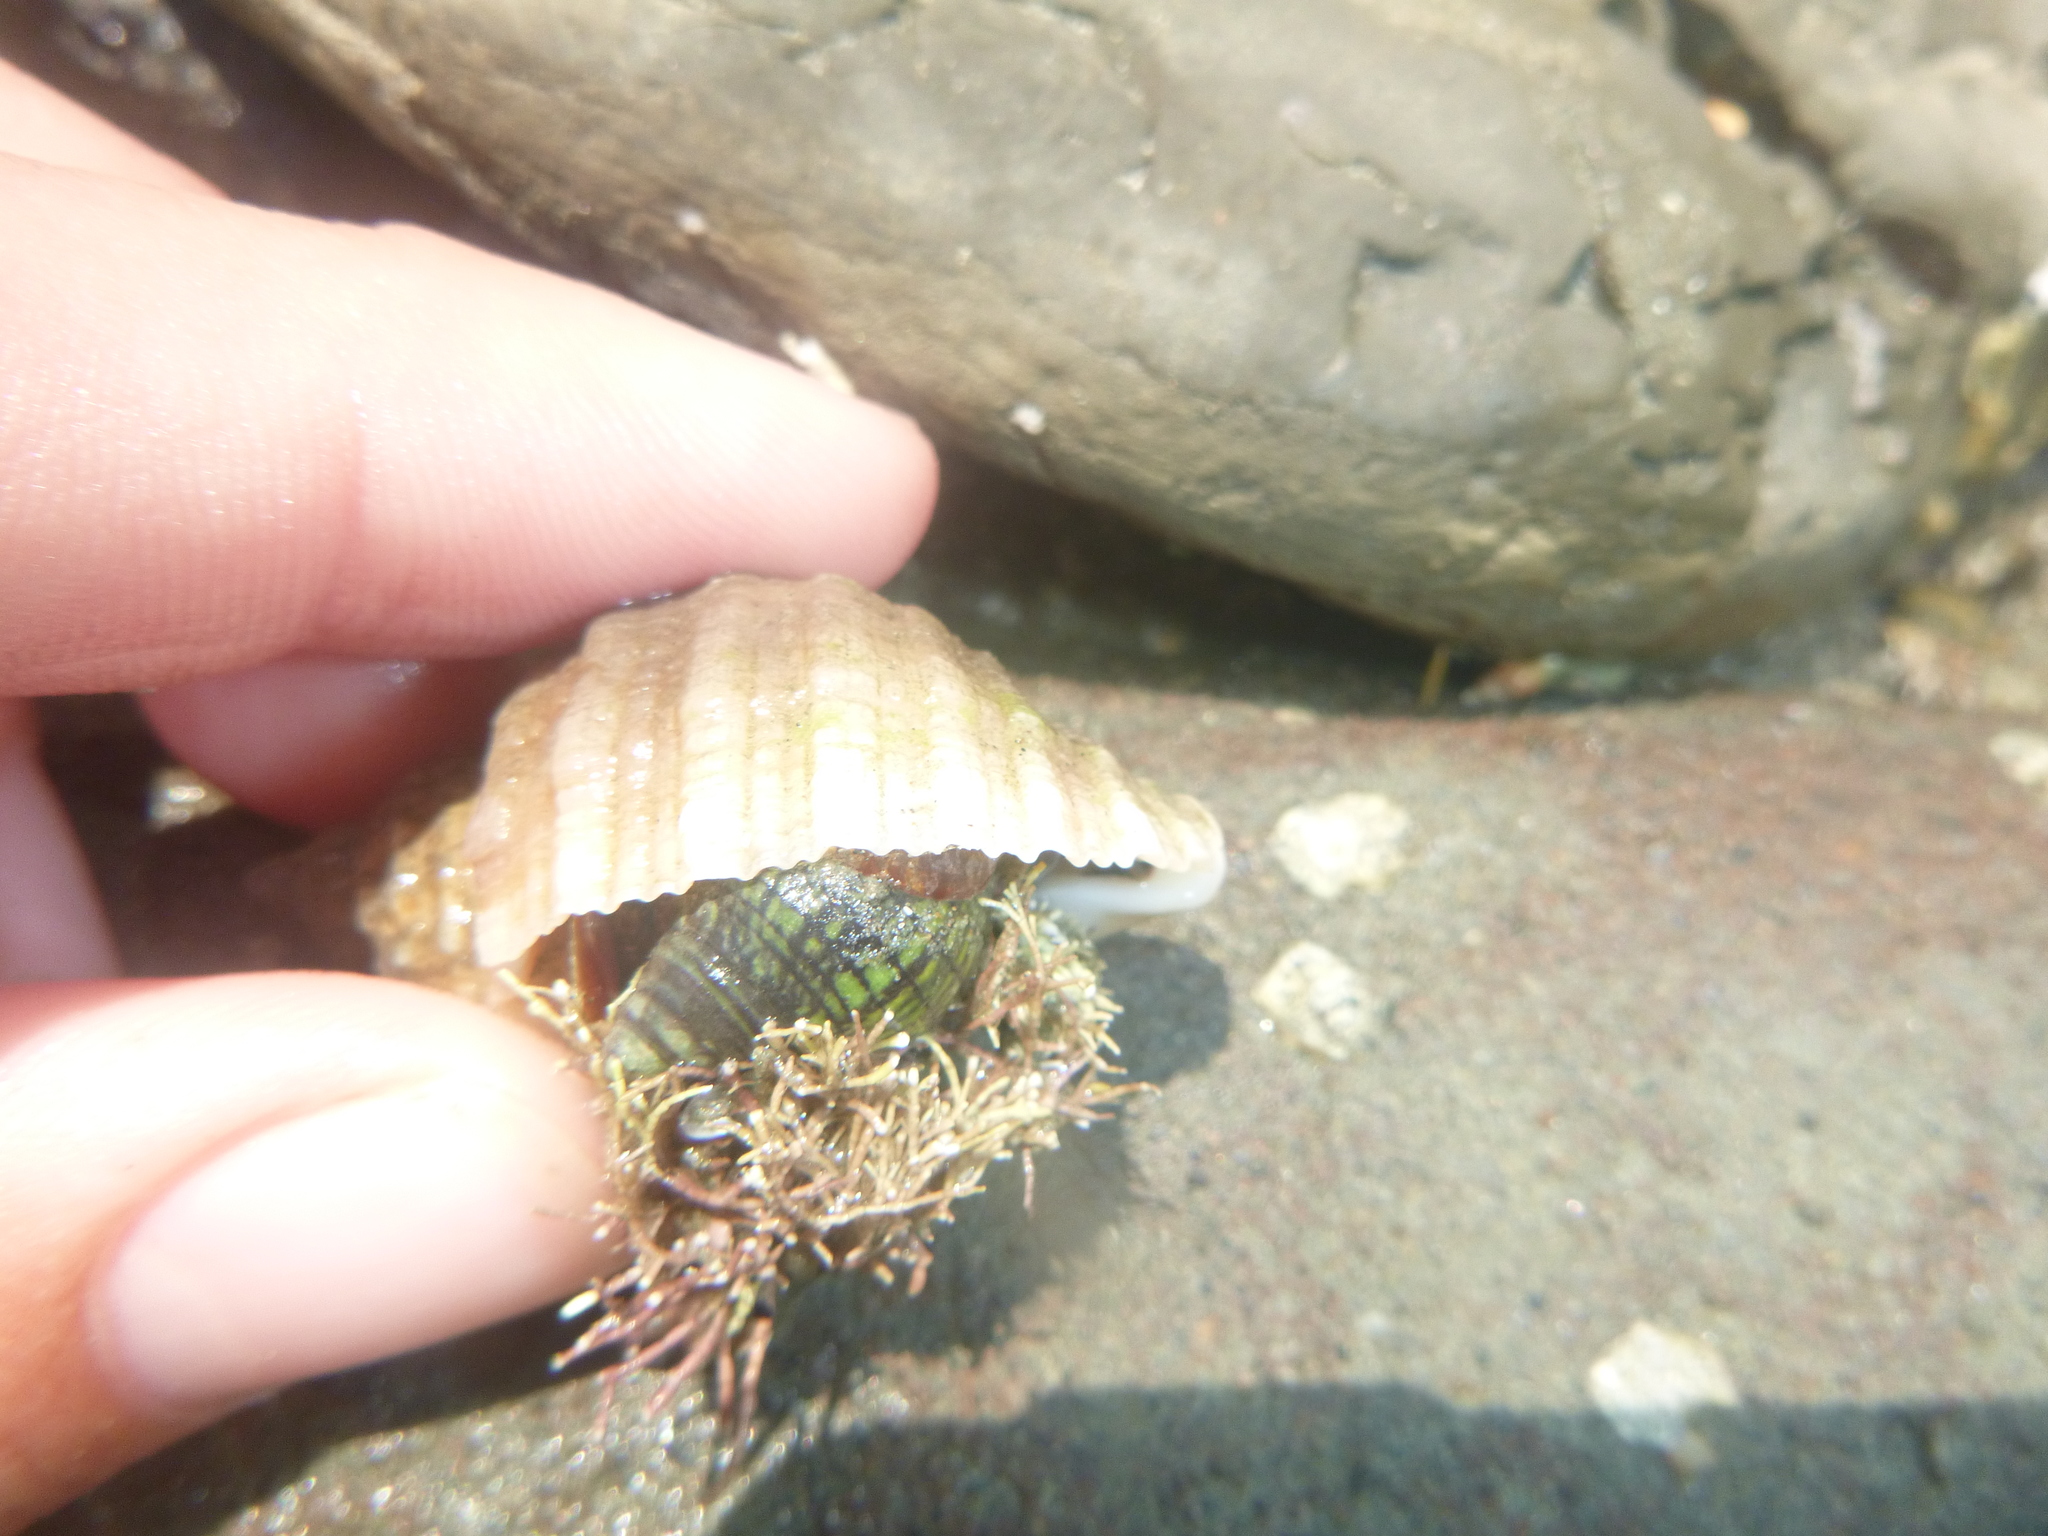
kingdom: Animalia
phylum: Mollusca
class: Gastropoda
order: Neogastropoda
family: Cominellidae
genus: Cominella
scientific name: Cominella virgata
